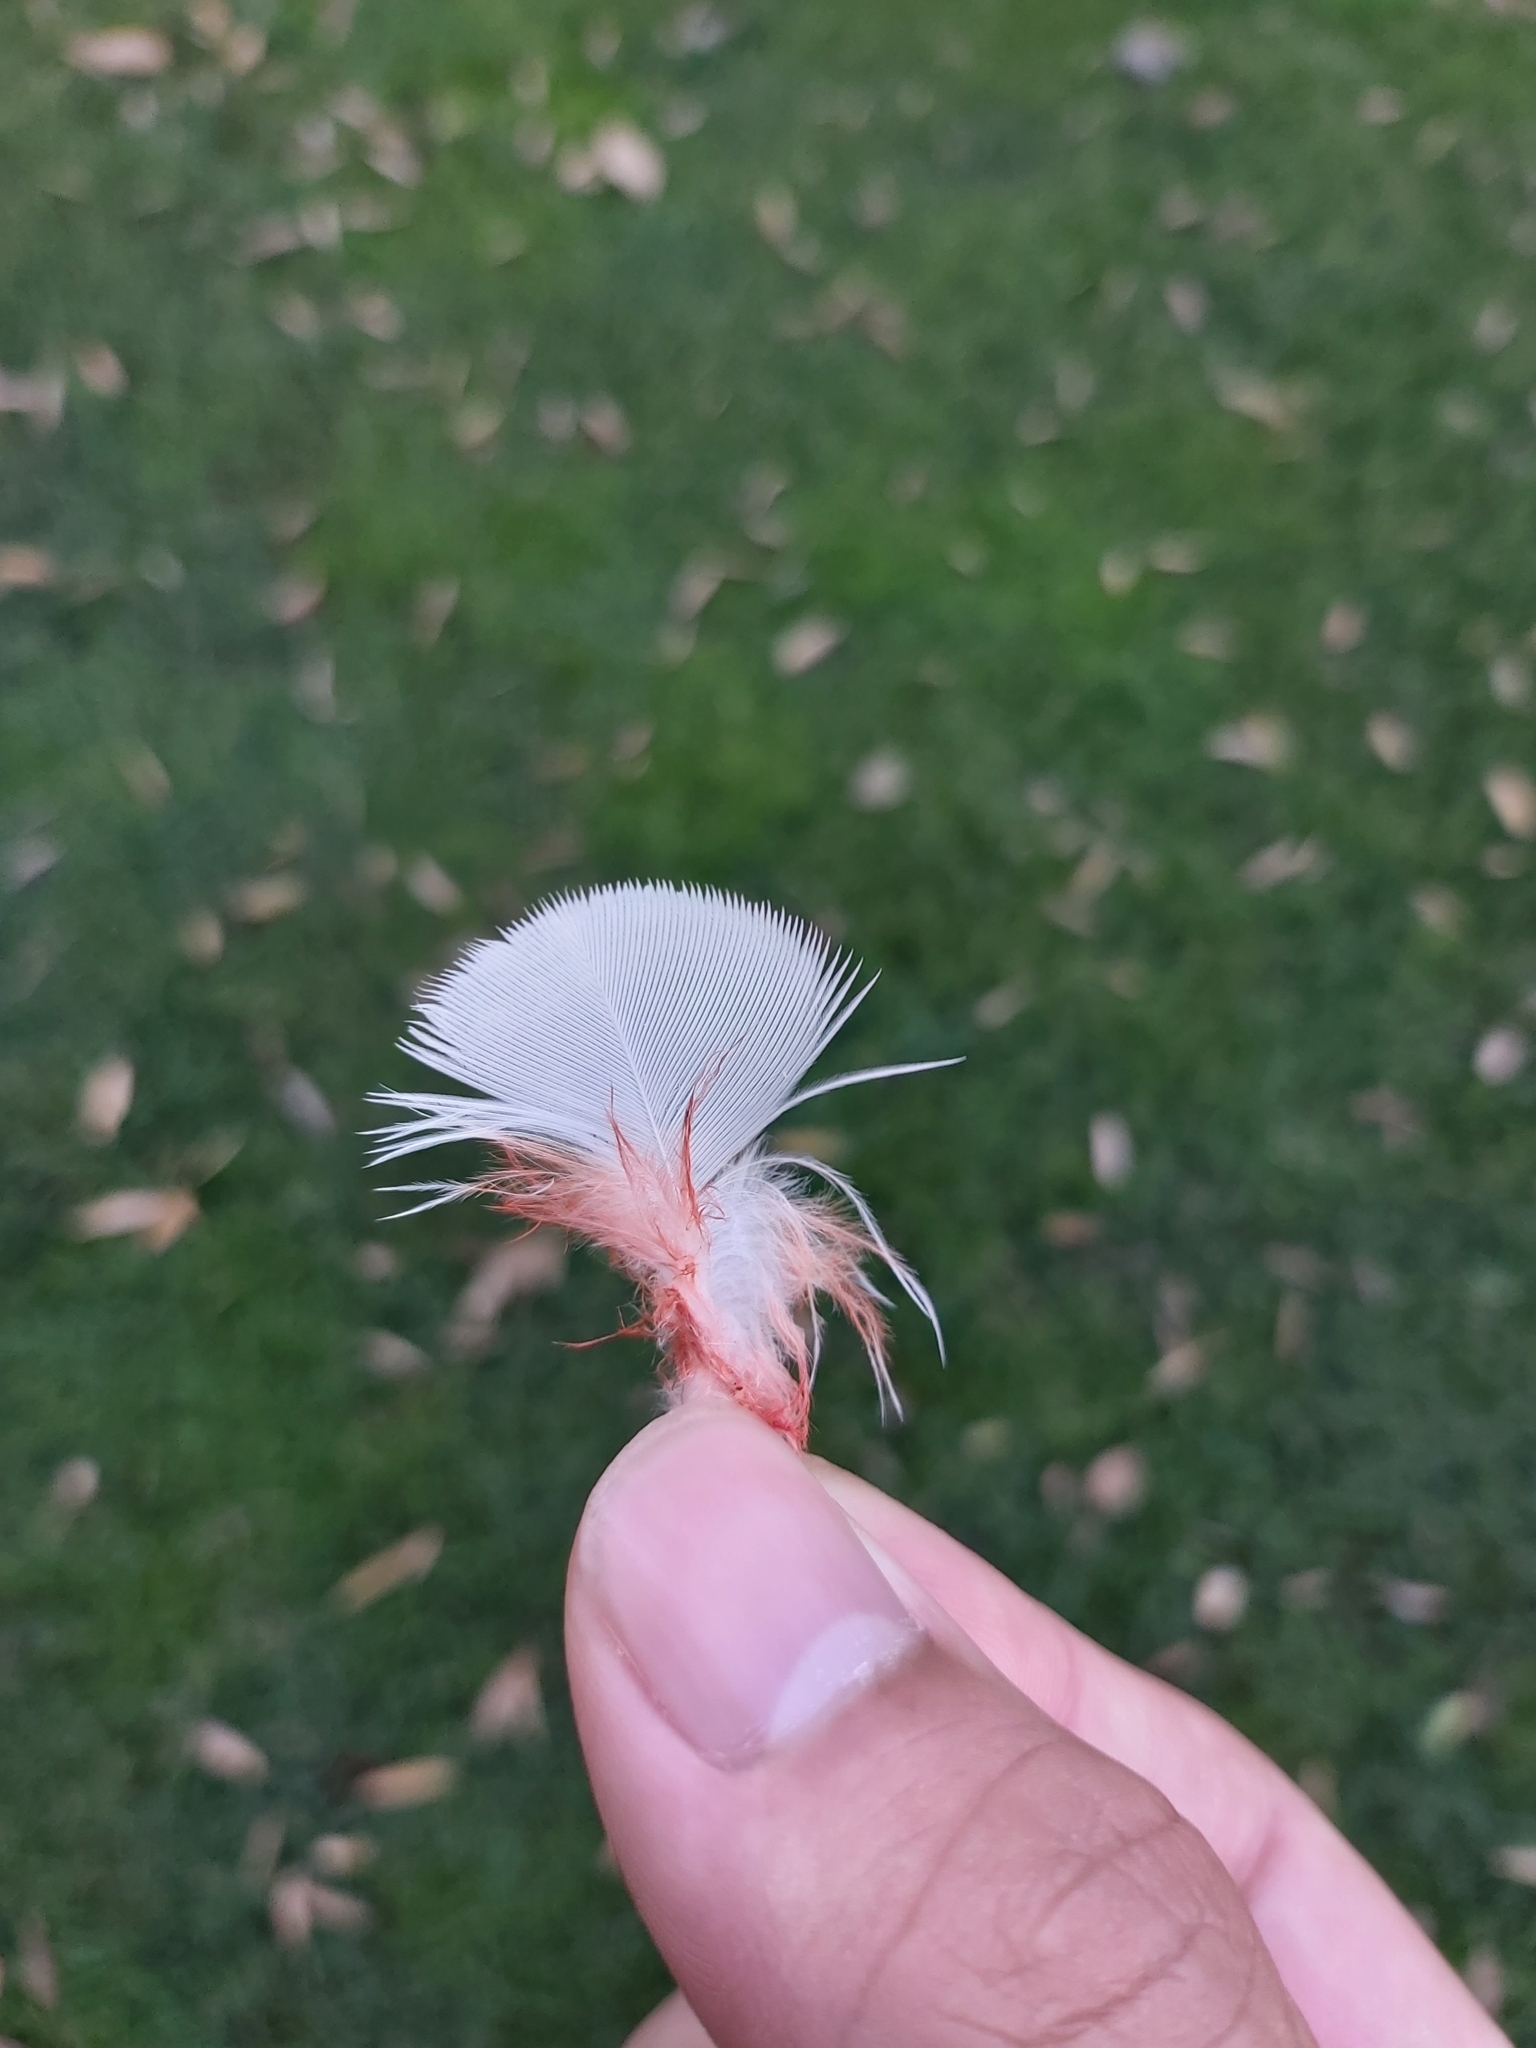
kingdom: Animalia
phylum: Chordata
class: Aves
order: Psittaciformes
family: Psittacidae
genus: Cacatua
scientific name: Cacatua tenuirostris
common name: Long-billed corella
